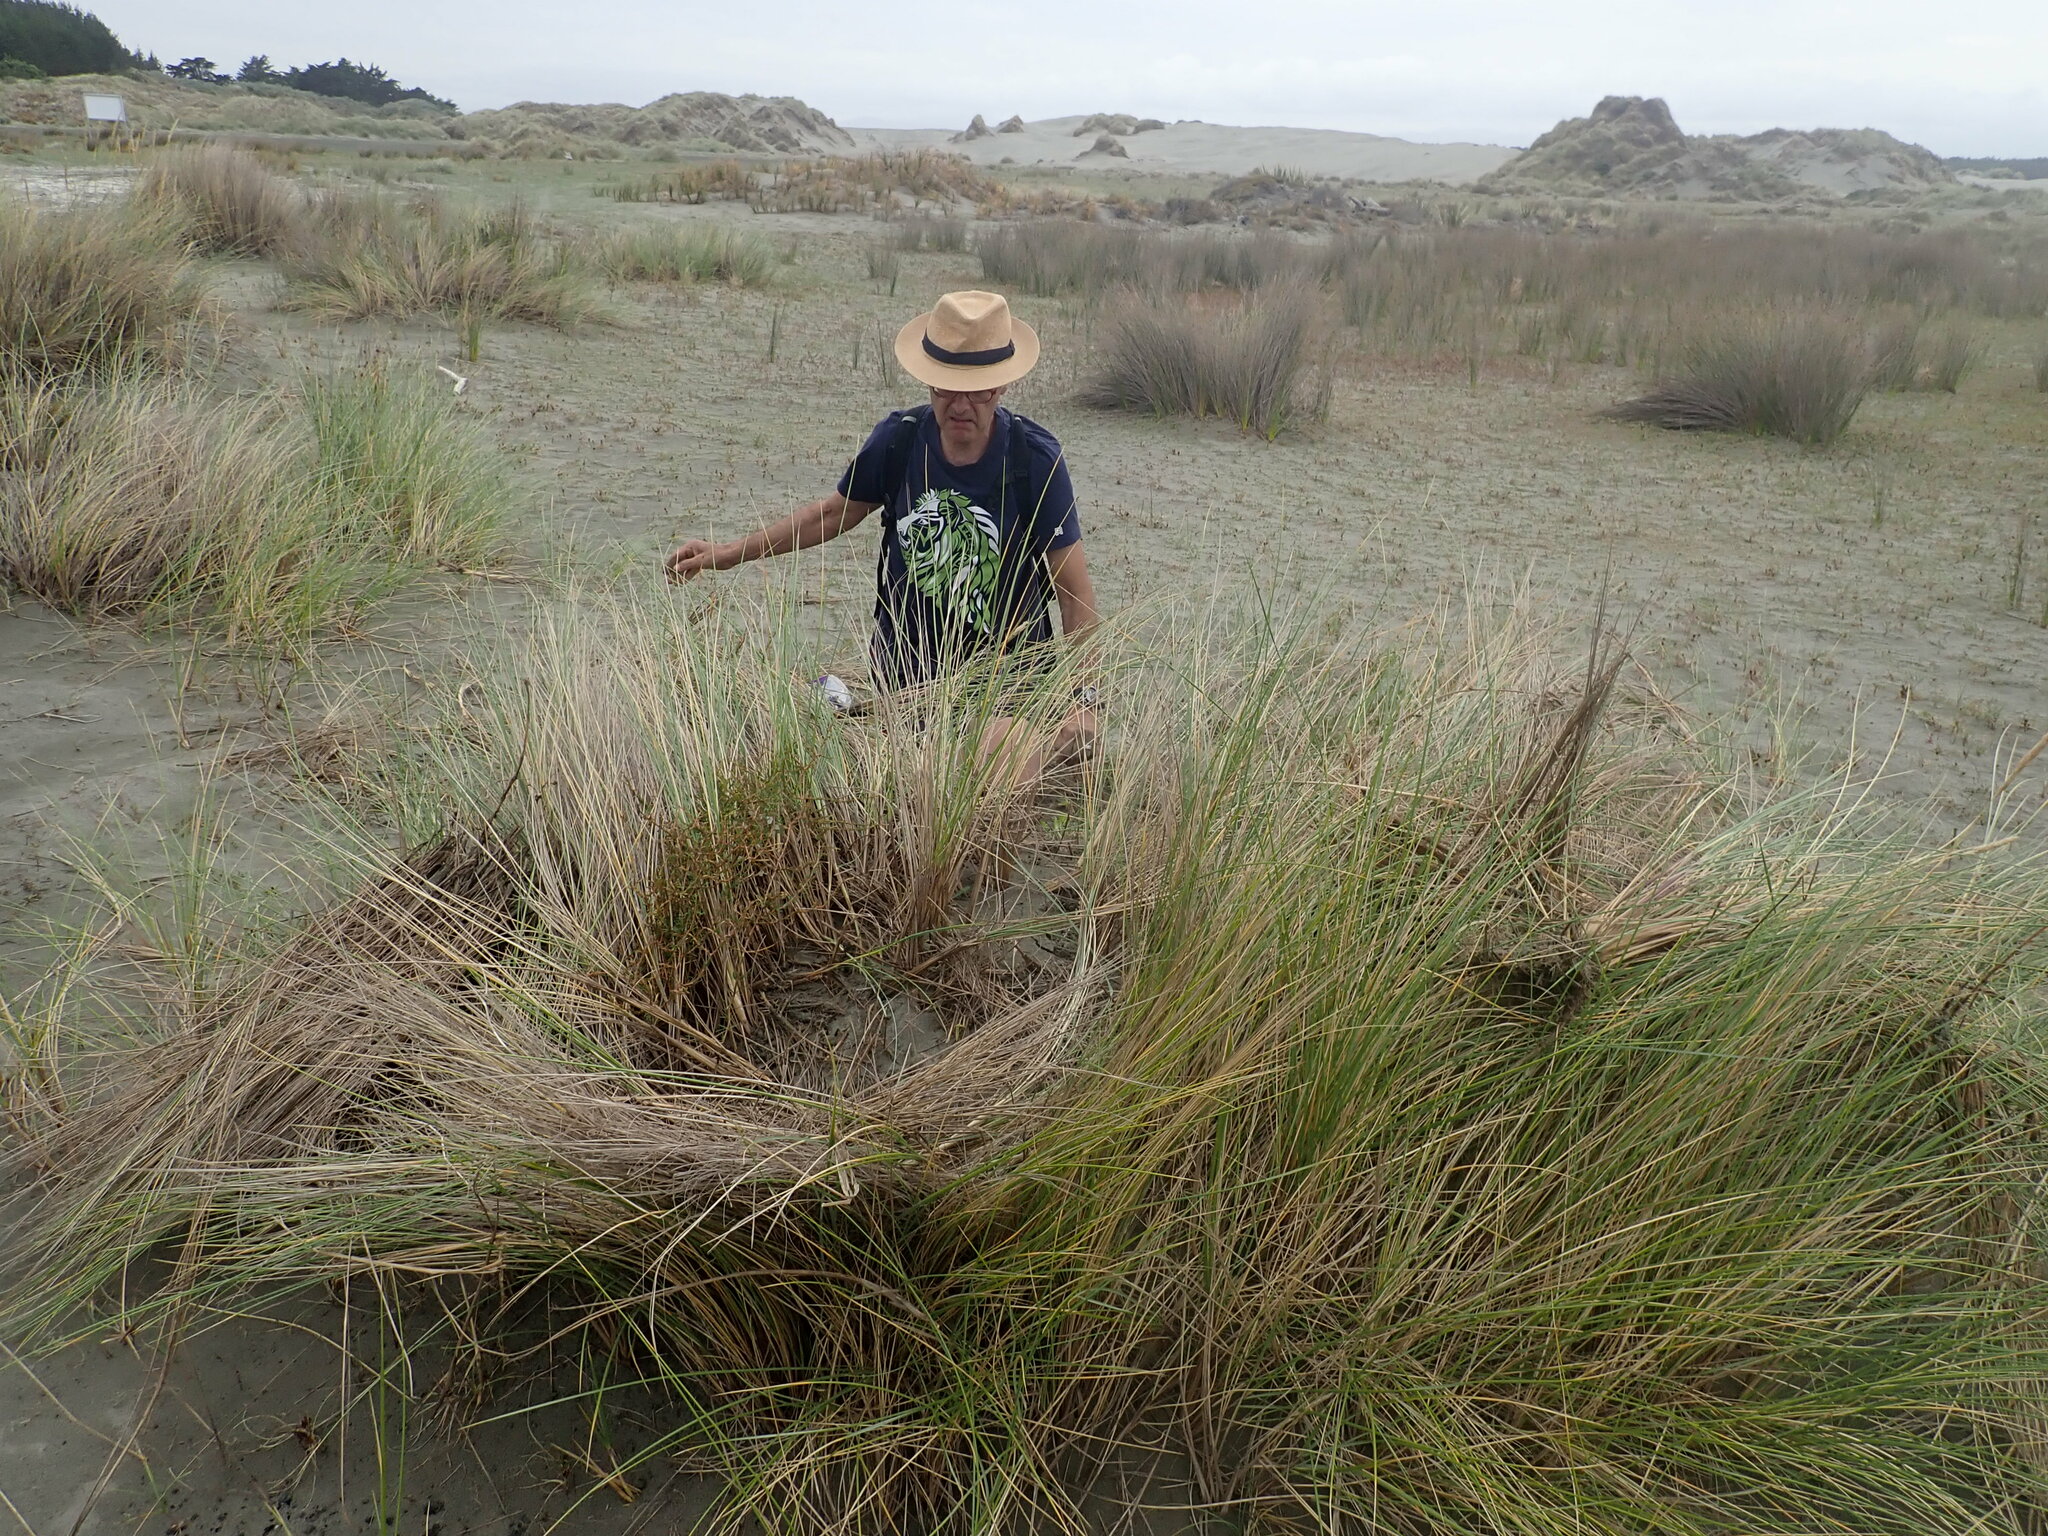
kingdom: Plantae
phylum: Tracheophyta
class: Magnoliopsida
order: Gentianales
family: Rubiaceae
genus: Coprosma
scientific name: Coprosma acerosa
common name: Sand coprosma
